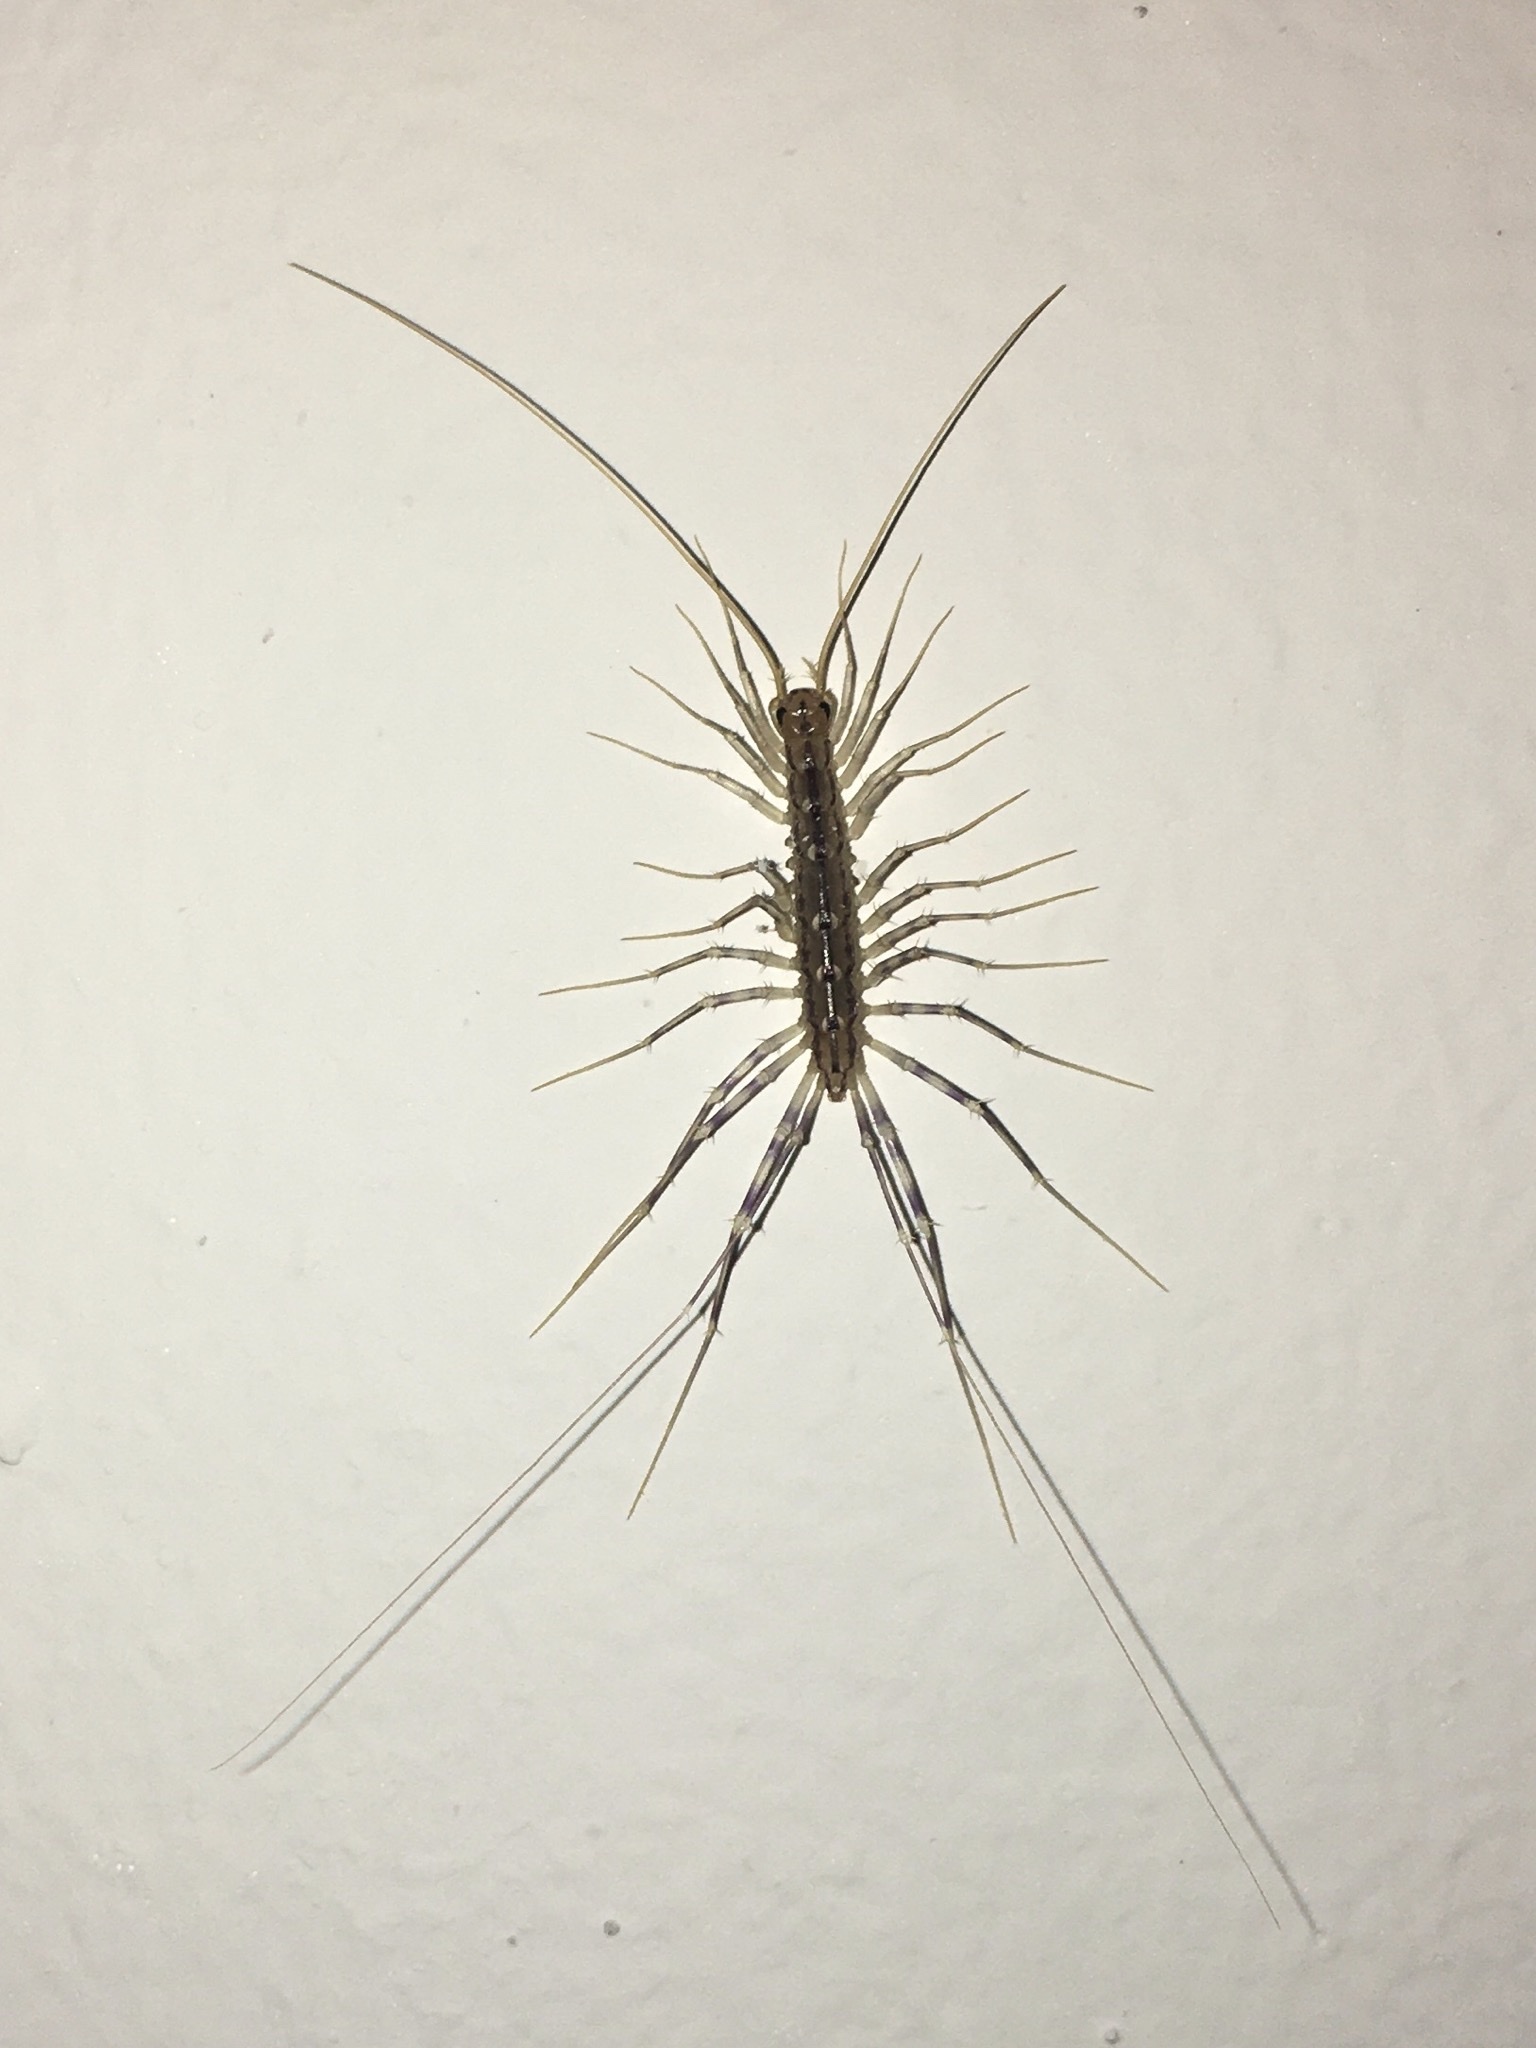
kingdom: Animalia
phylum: Arthropoda
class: Chilopoda
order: Scutigeromorpha
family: Scutigeridae
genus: Scutigera
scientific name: Scutigera coleoptrata
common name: House centipede
